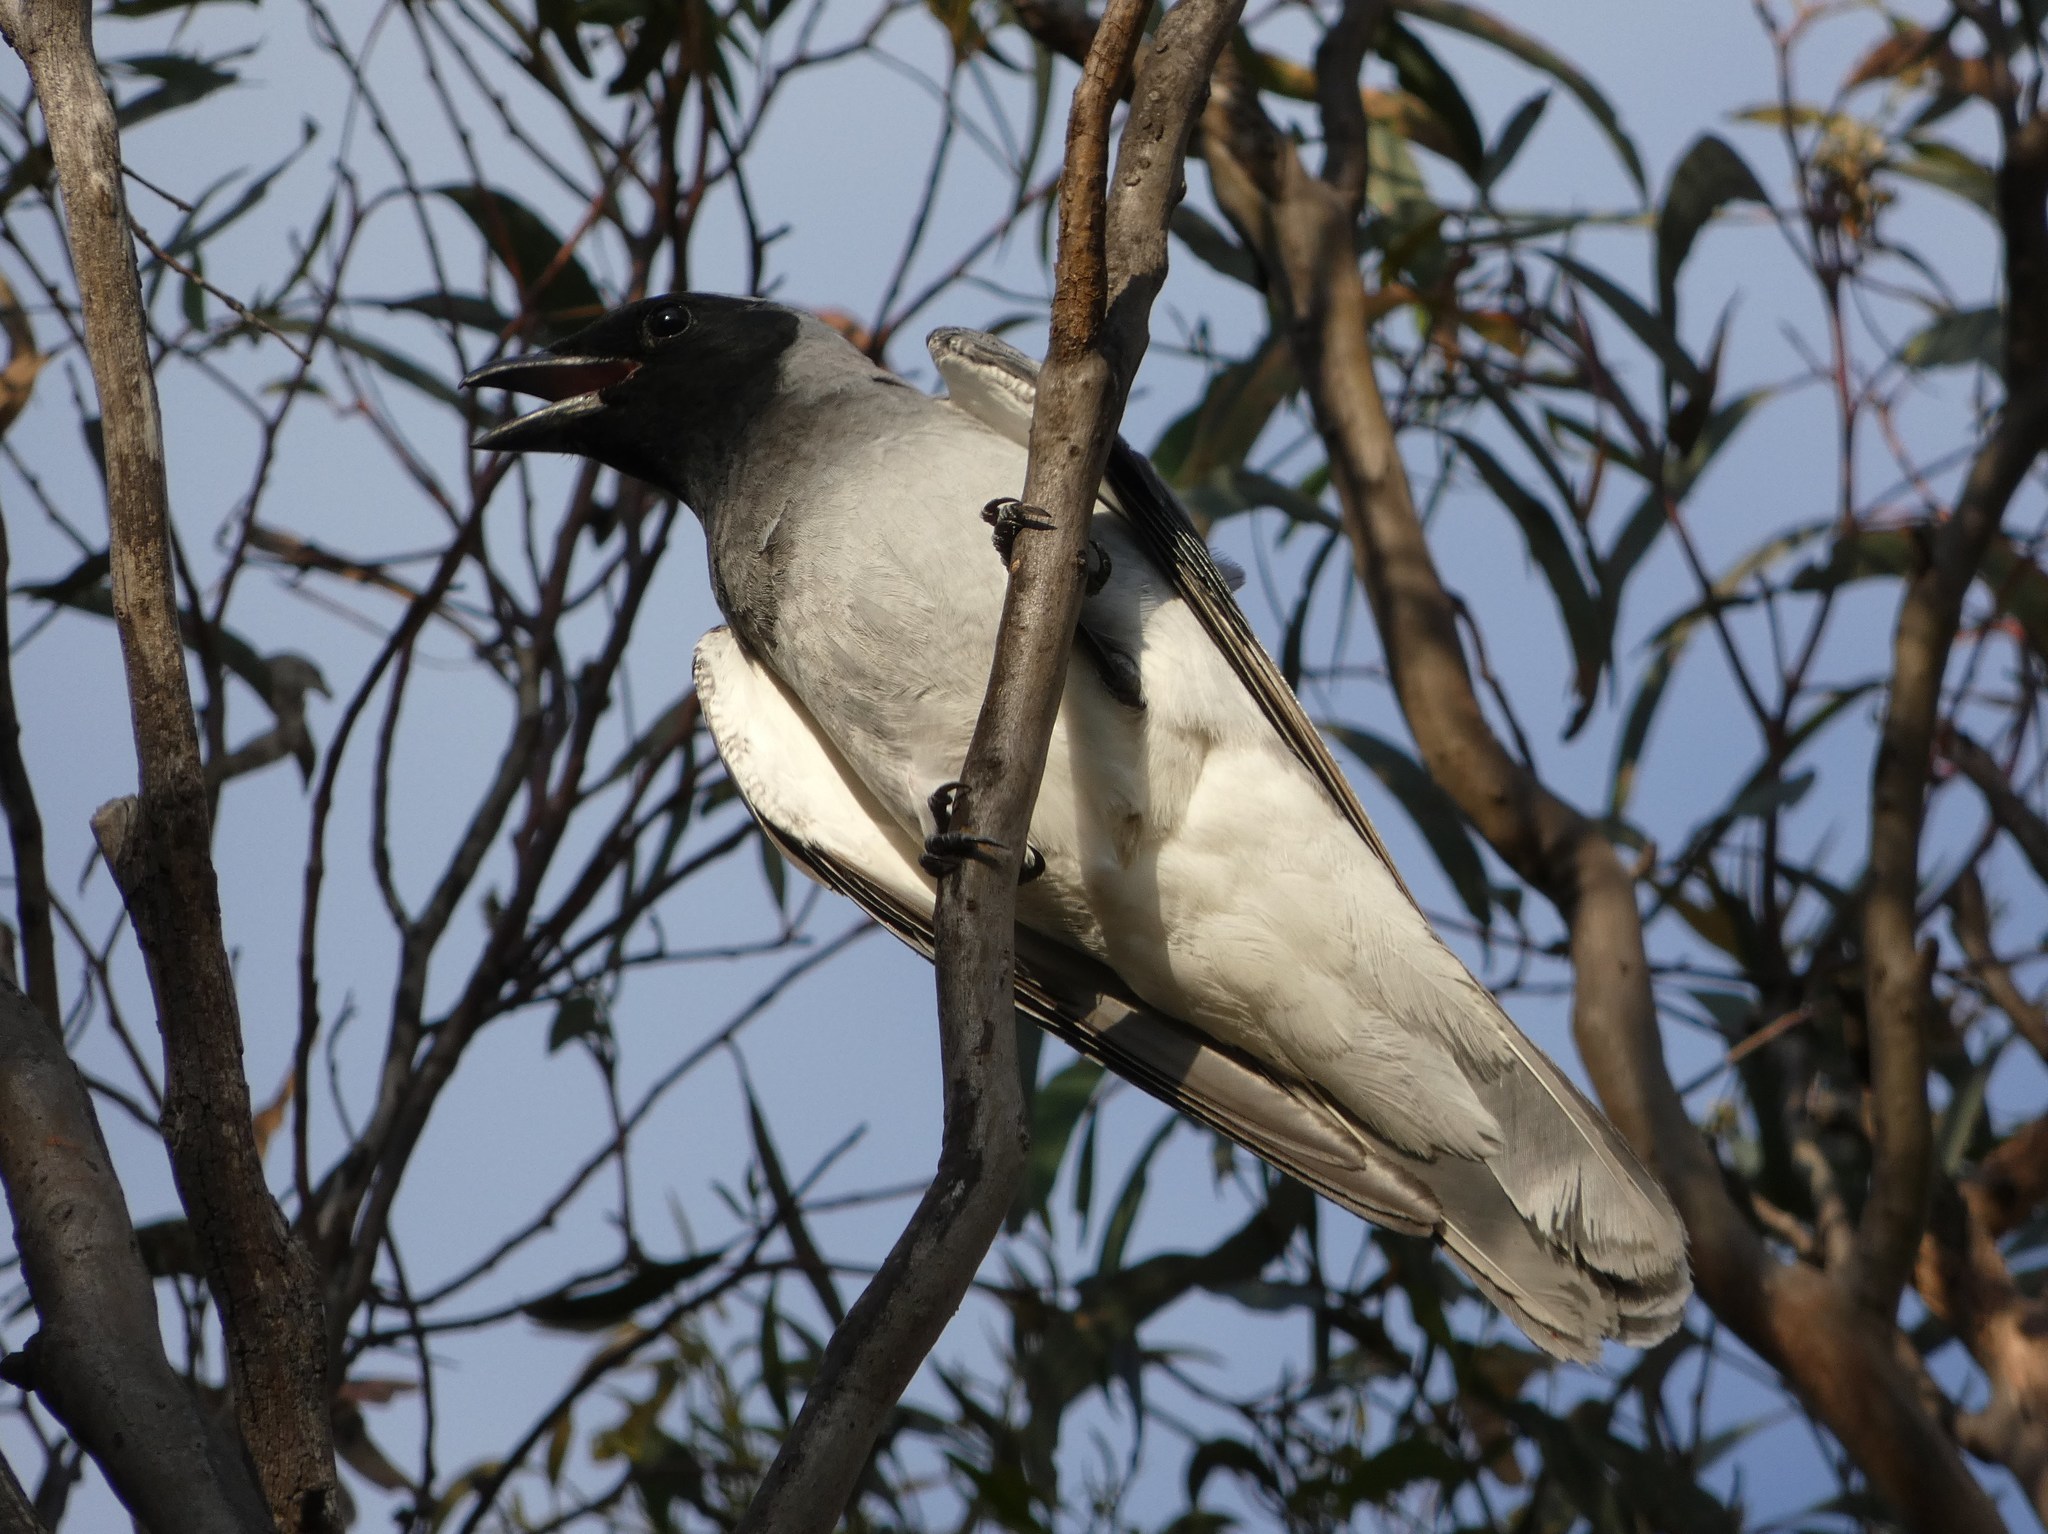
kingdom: Animalia
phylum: Chordata
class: Aves
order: Passeriformes
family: Campephagidae
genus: Coracina
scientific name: Coracina novaehollandiae
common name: Black-faced cuckooshrike
